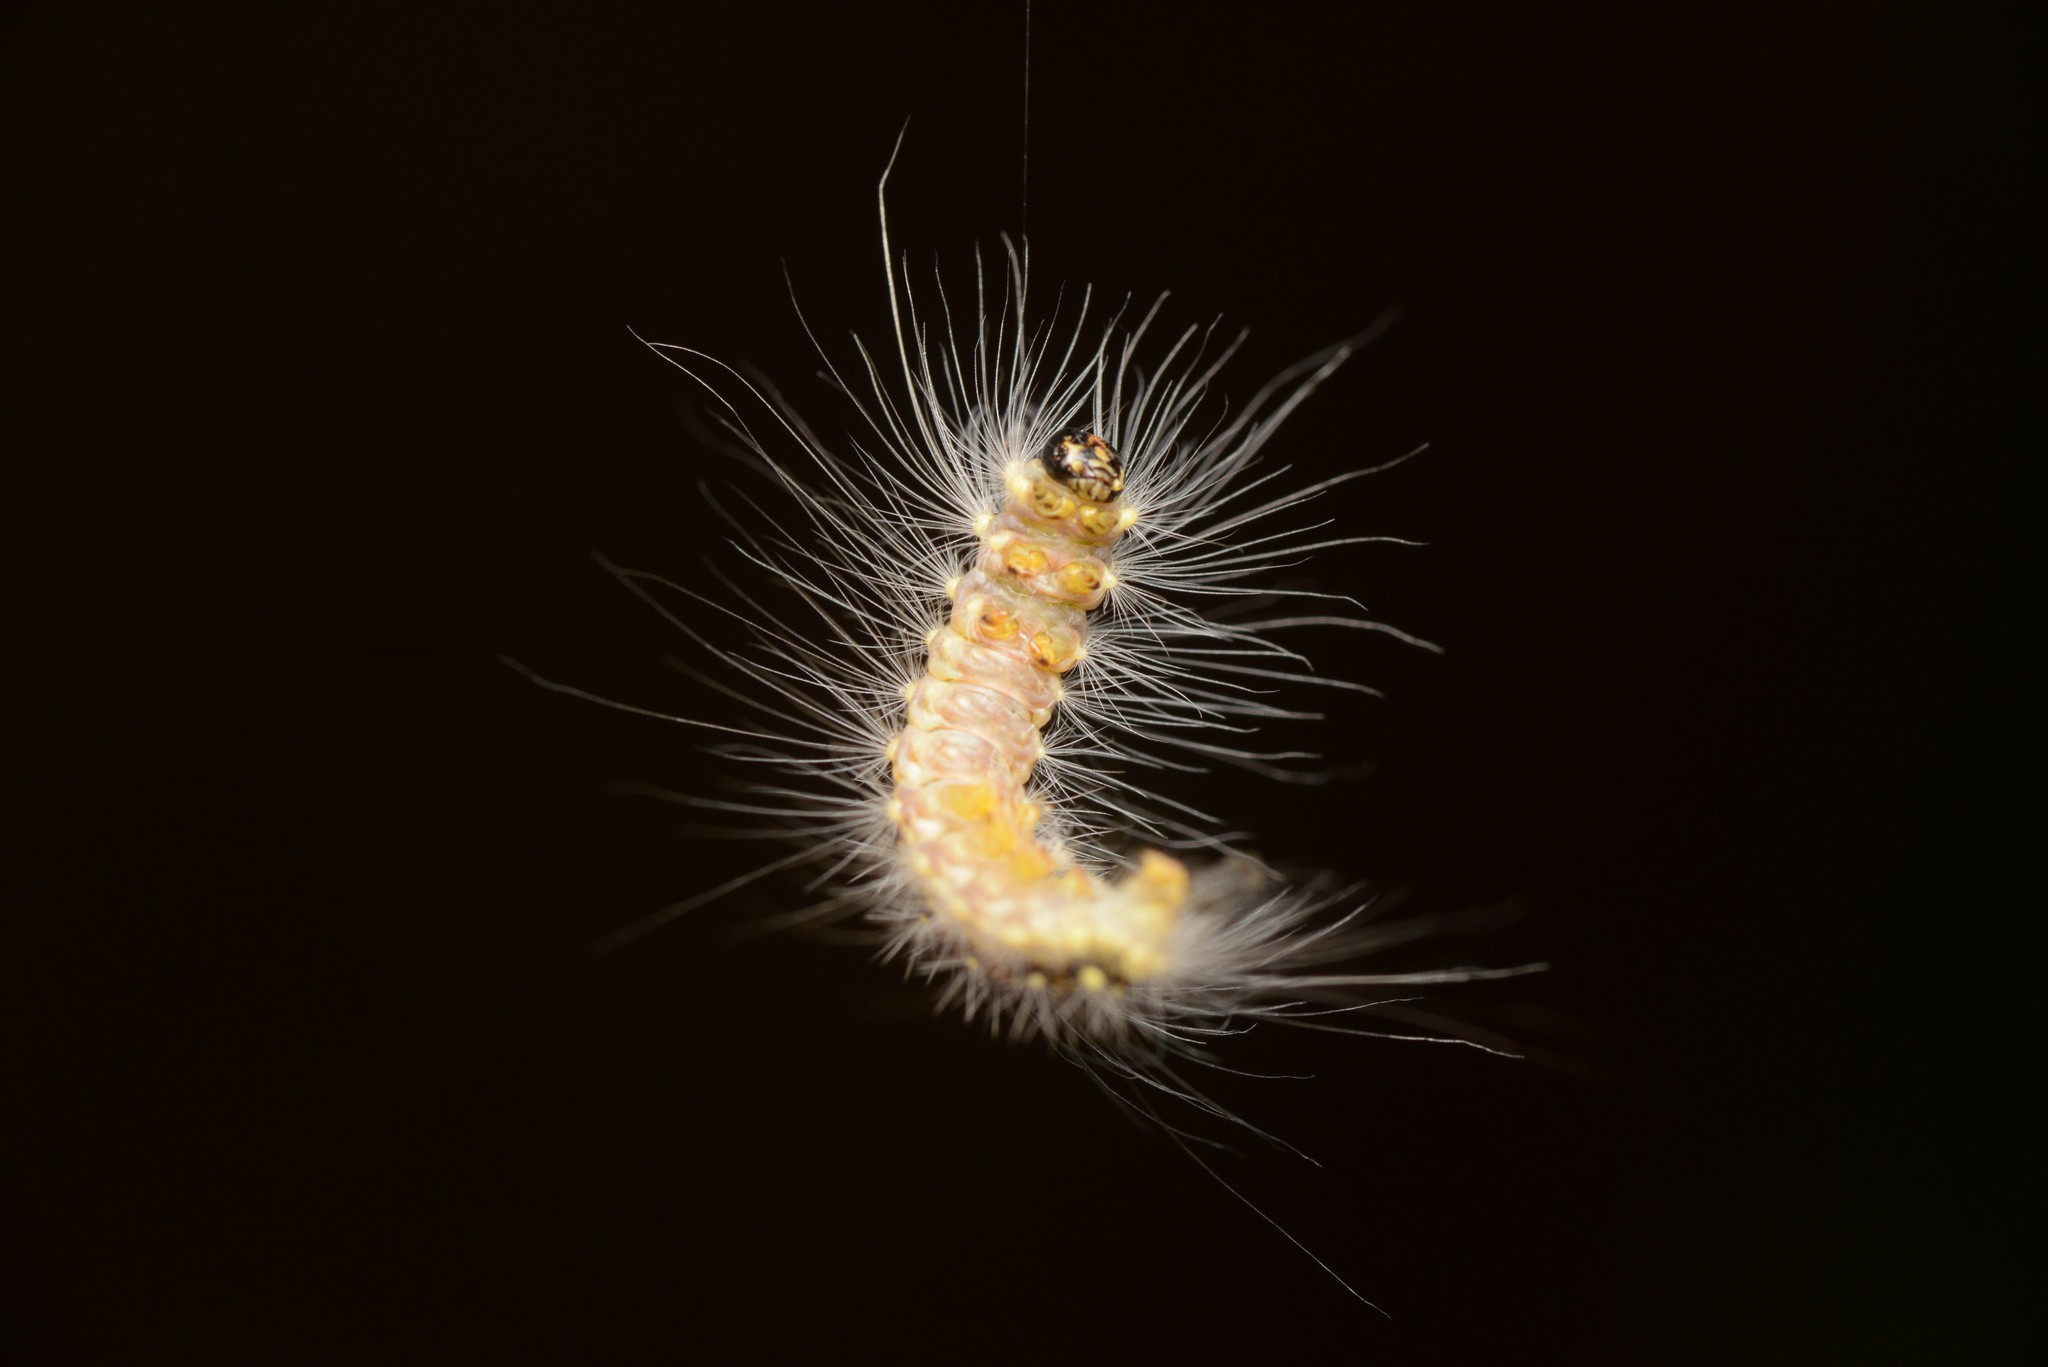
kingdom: Animalia
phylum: Arthropoda
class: Insecta
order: Lepidoptera
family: Nolidae
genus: Uraba
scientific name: Uraba lugens
